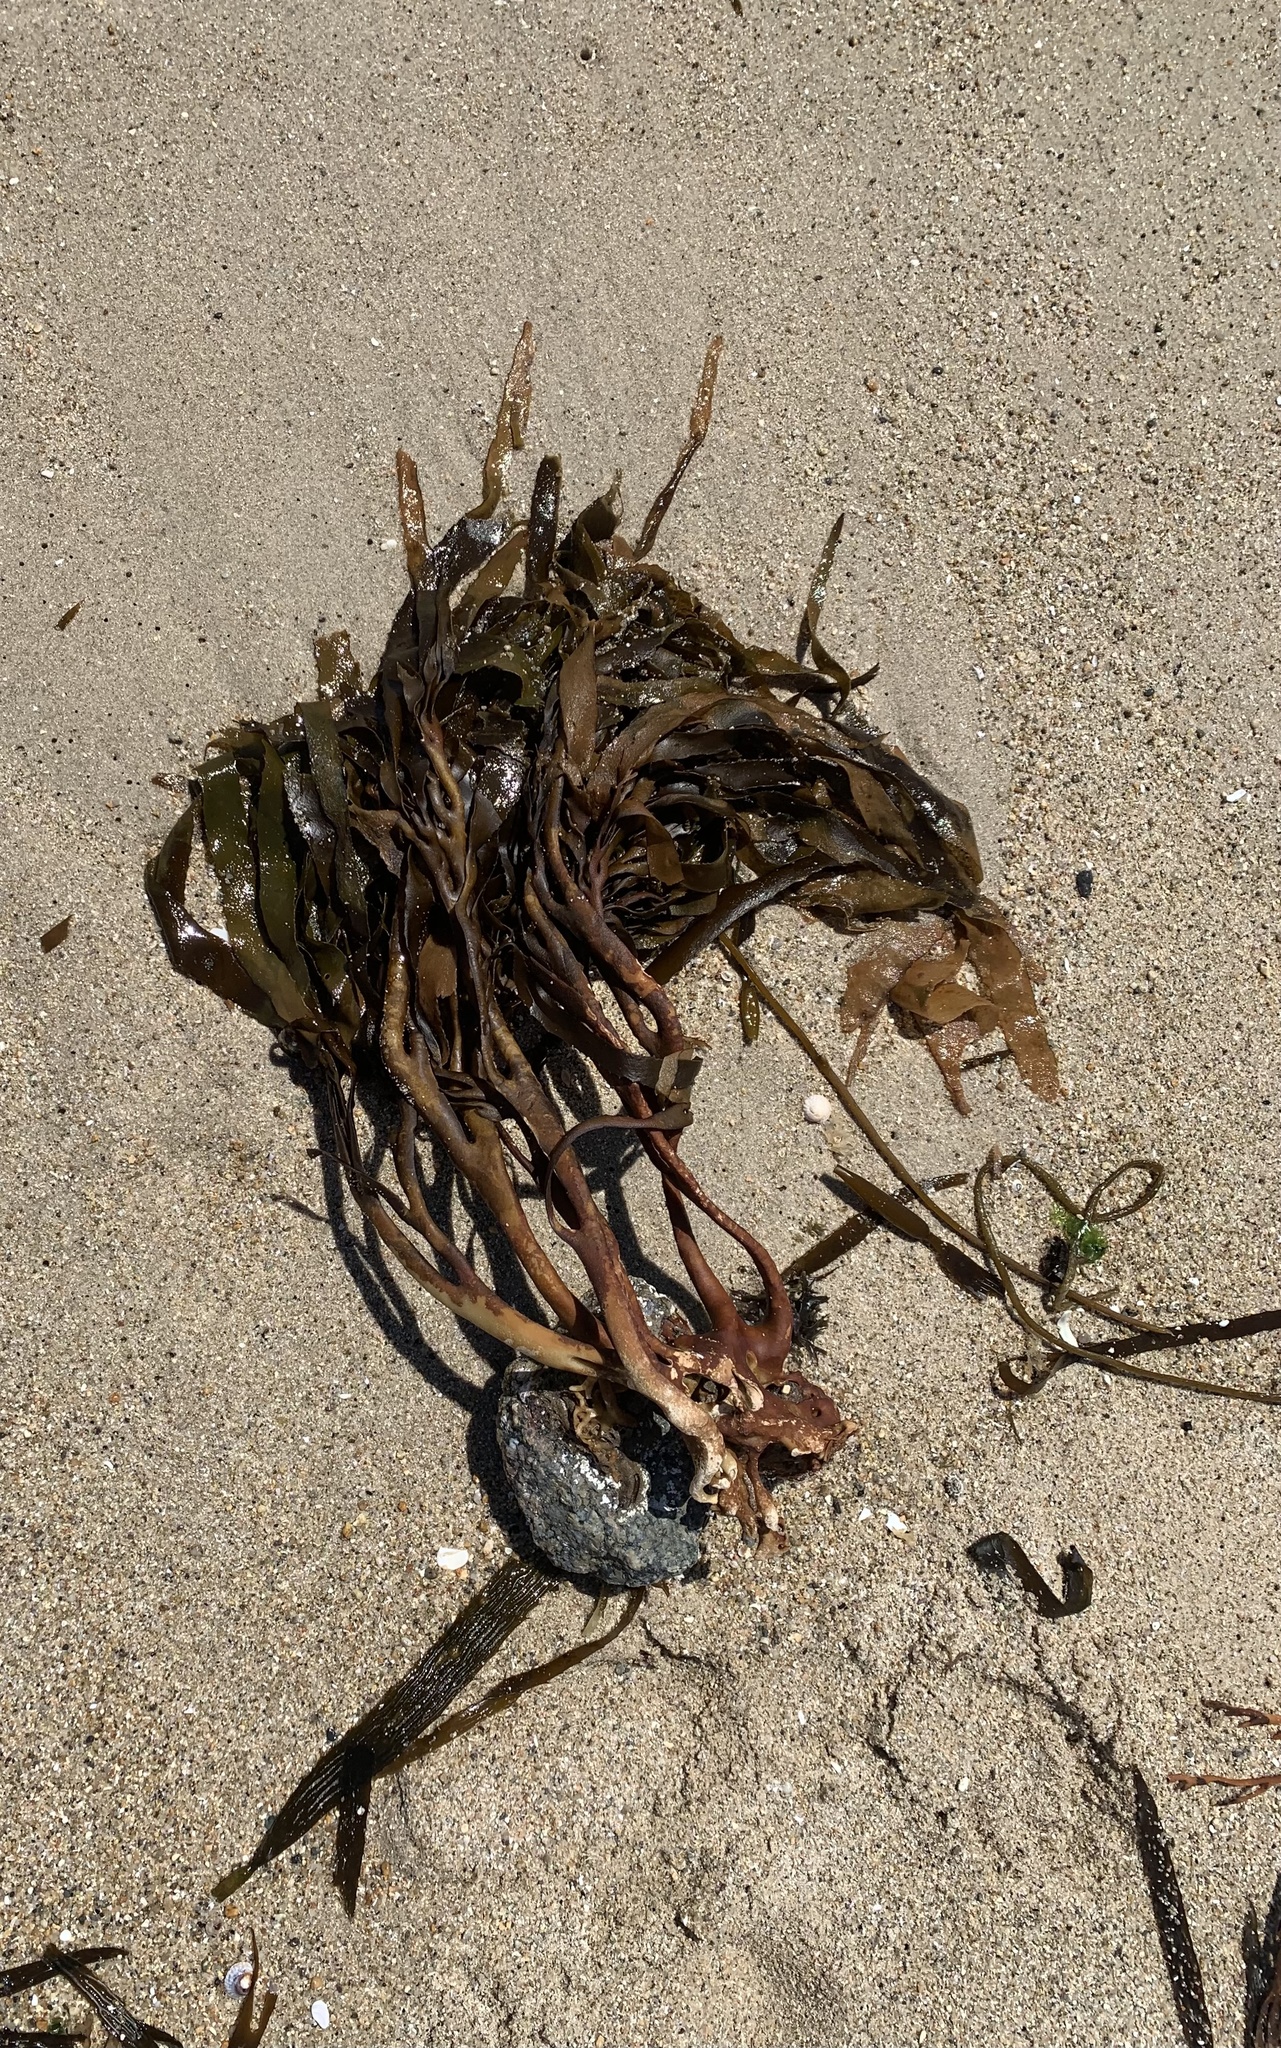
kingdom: Chromista
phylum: Ochrophyta
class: Phaeophyceae
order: Laminariales
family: Lessoniaceae
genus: Lessonia
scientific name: Lessonia trabeculata
